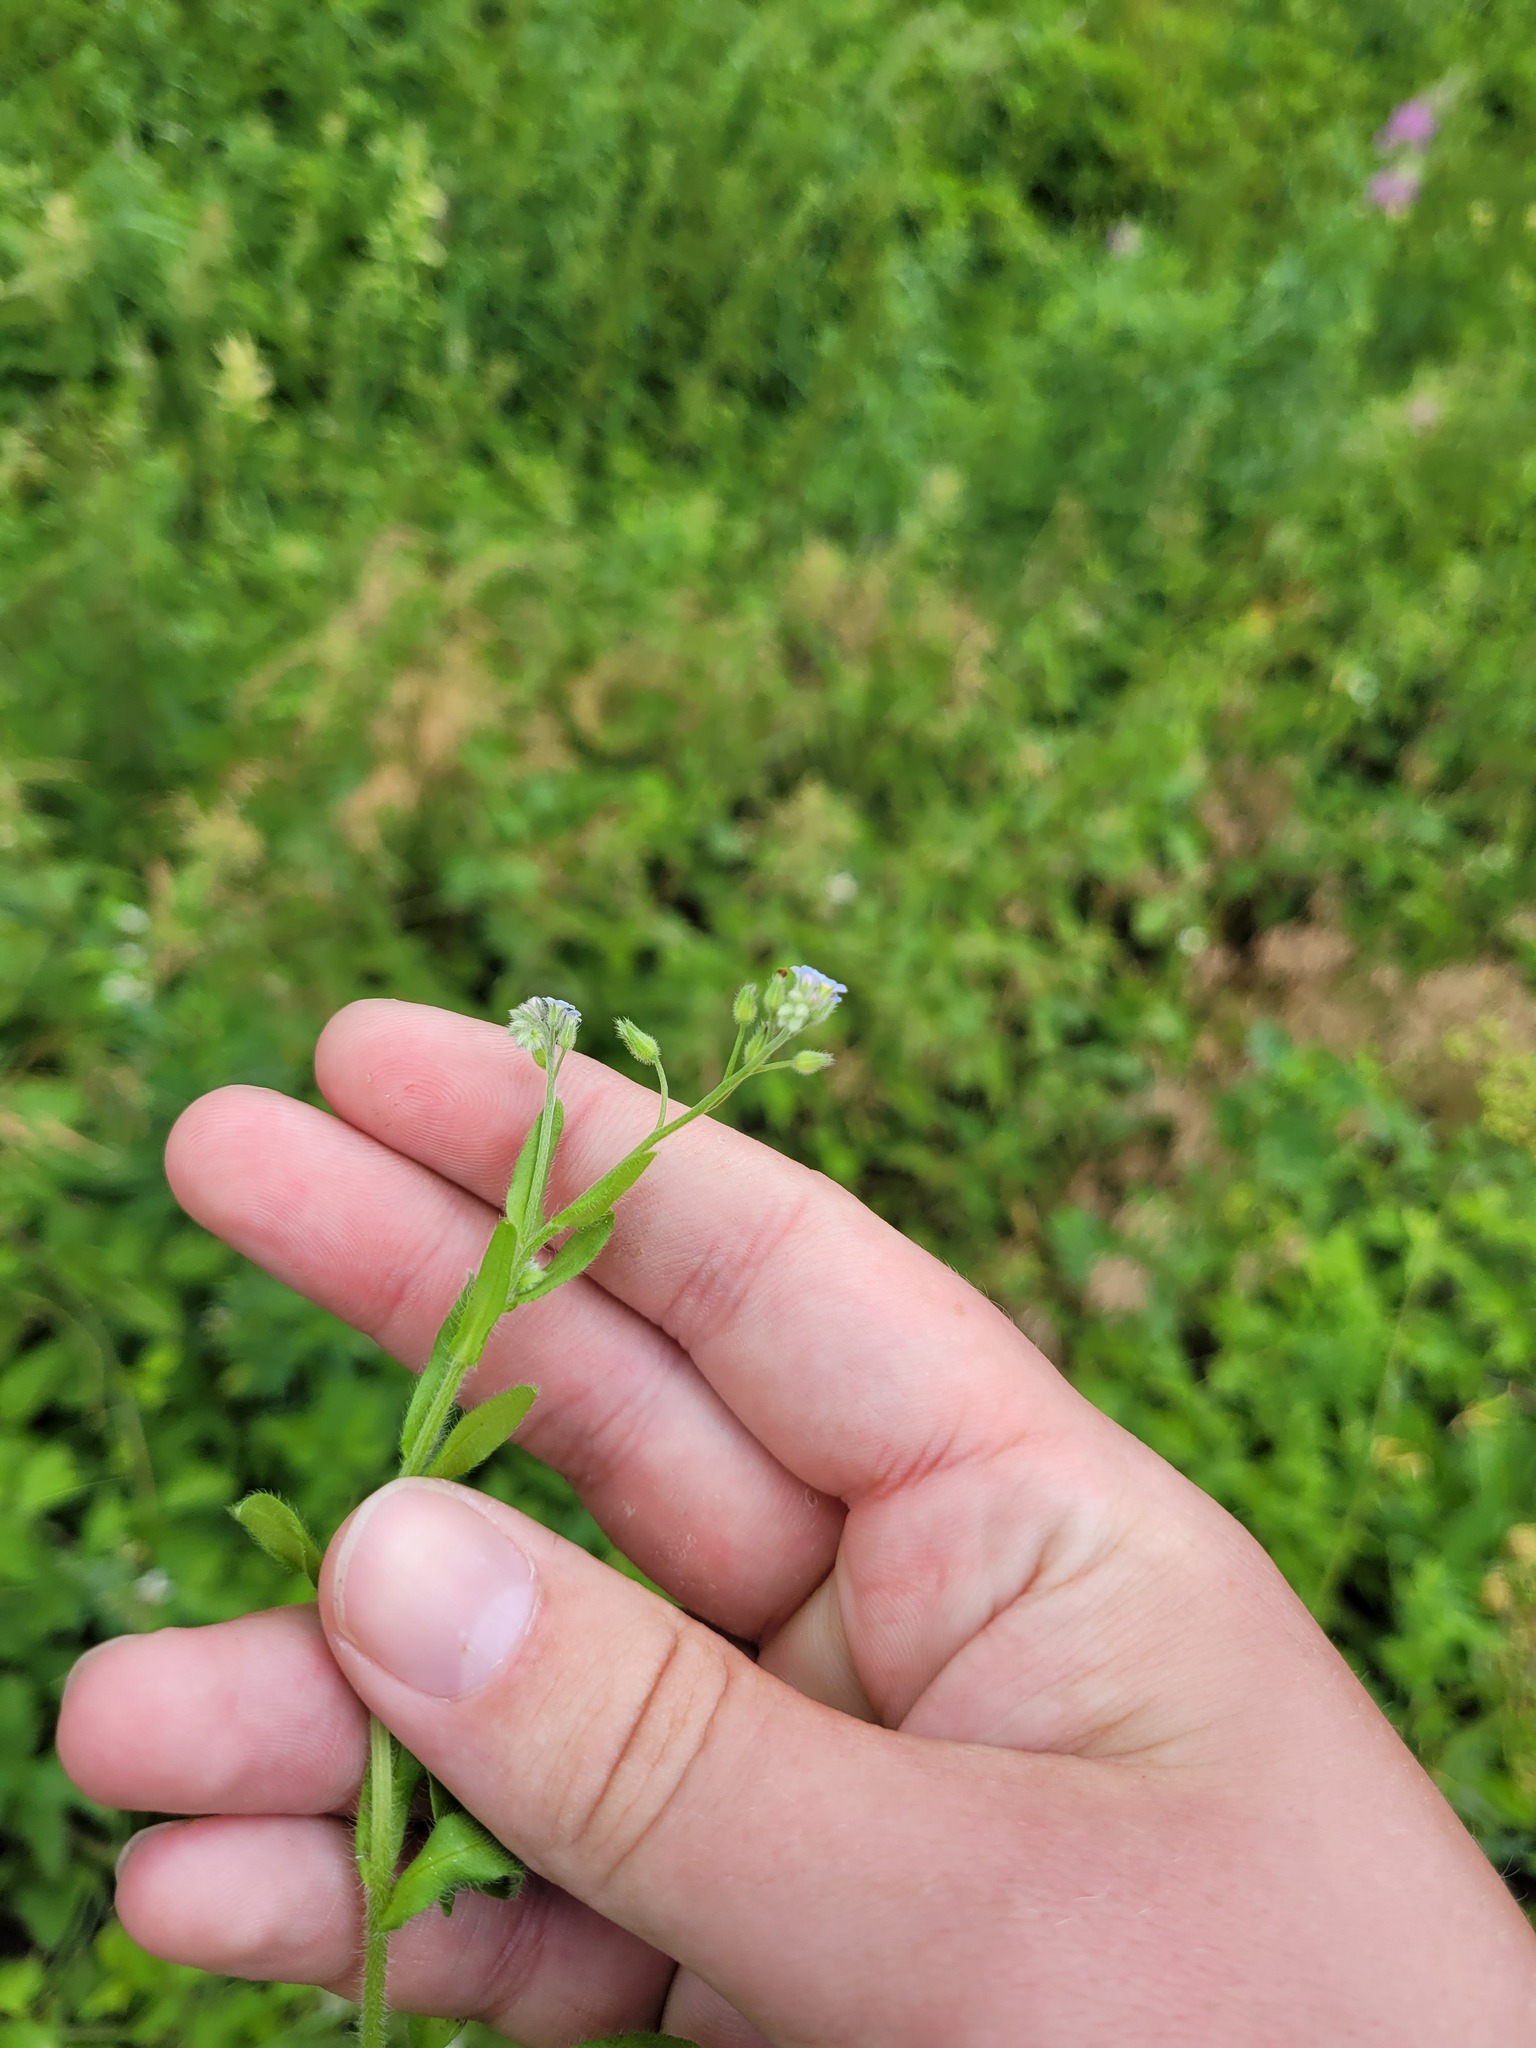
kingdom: Plantae
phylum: Tracheophyta
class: Magnoliopsida
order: Boraginales
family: Boraginaceae
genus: Myosotis
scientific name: Myosotis arvensis
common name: Field forget-me-not
